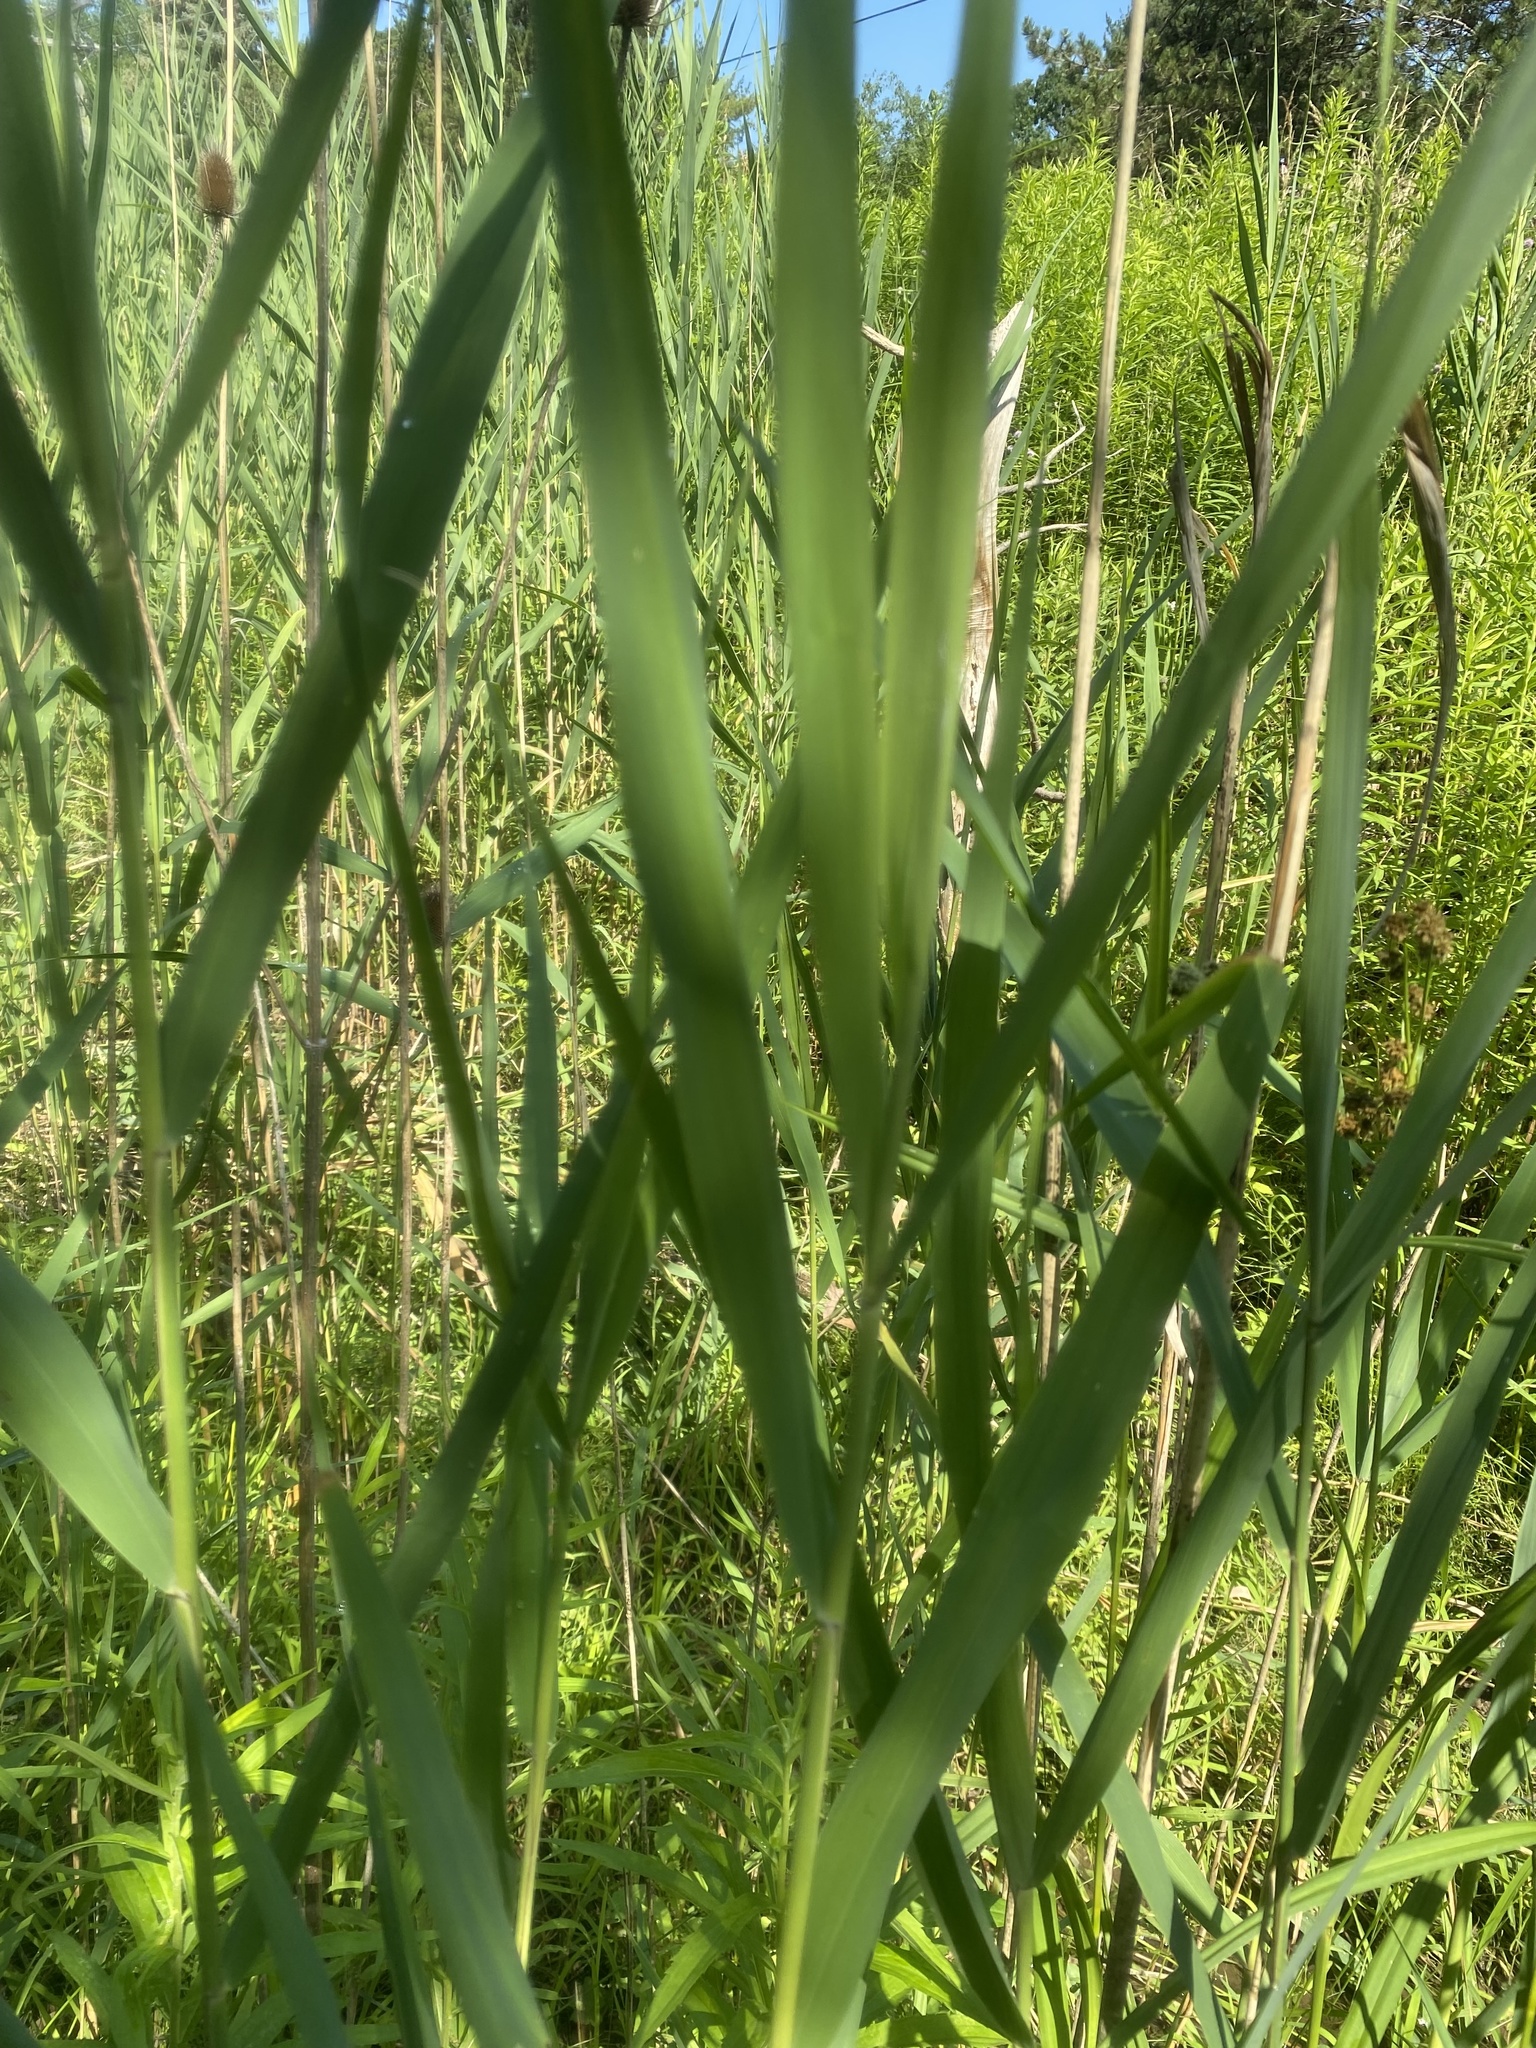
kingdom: Plantae
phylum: Tracheophyta
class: Liliopsida
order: Poales
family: Poaceae
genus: Phragmites
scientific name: Phragmites australis
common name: Common reed
